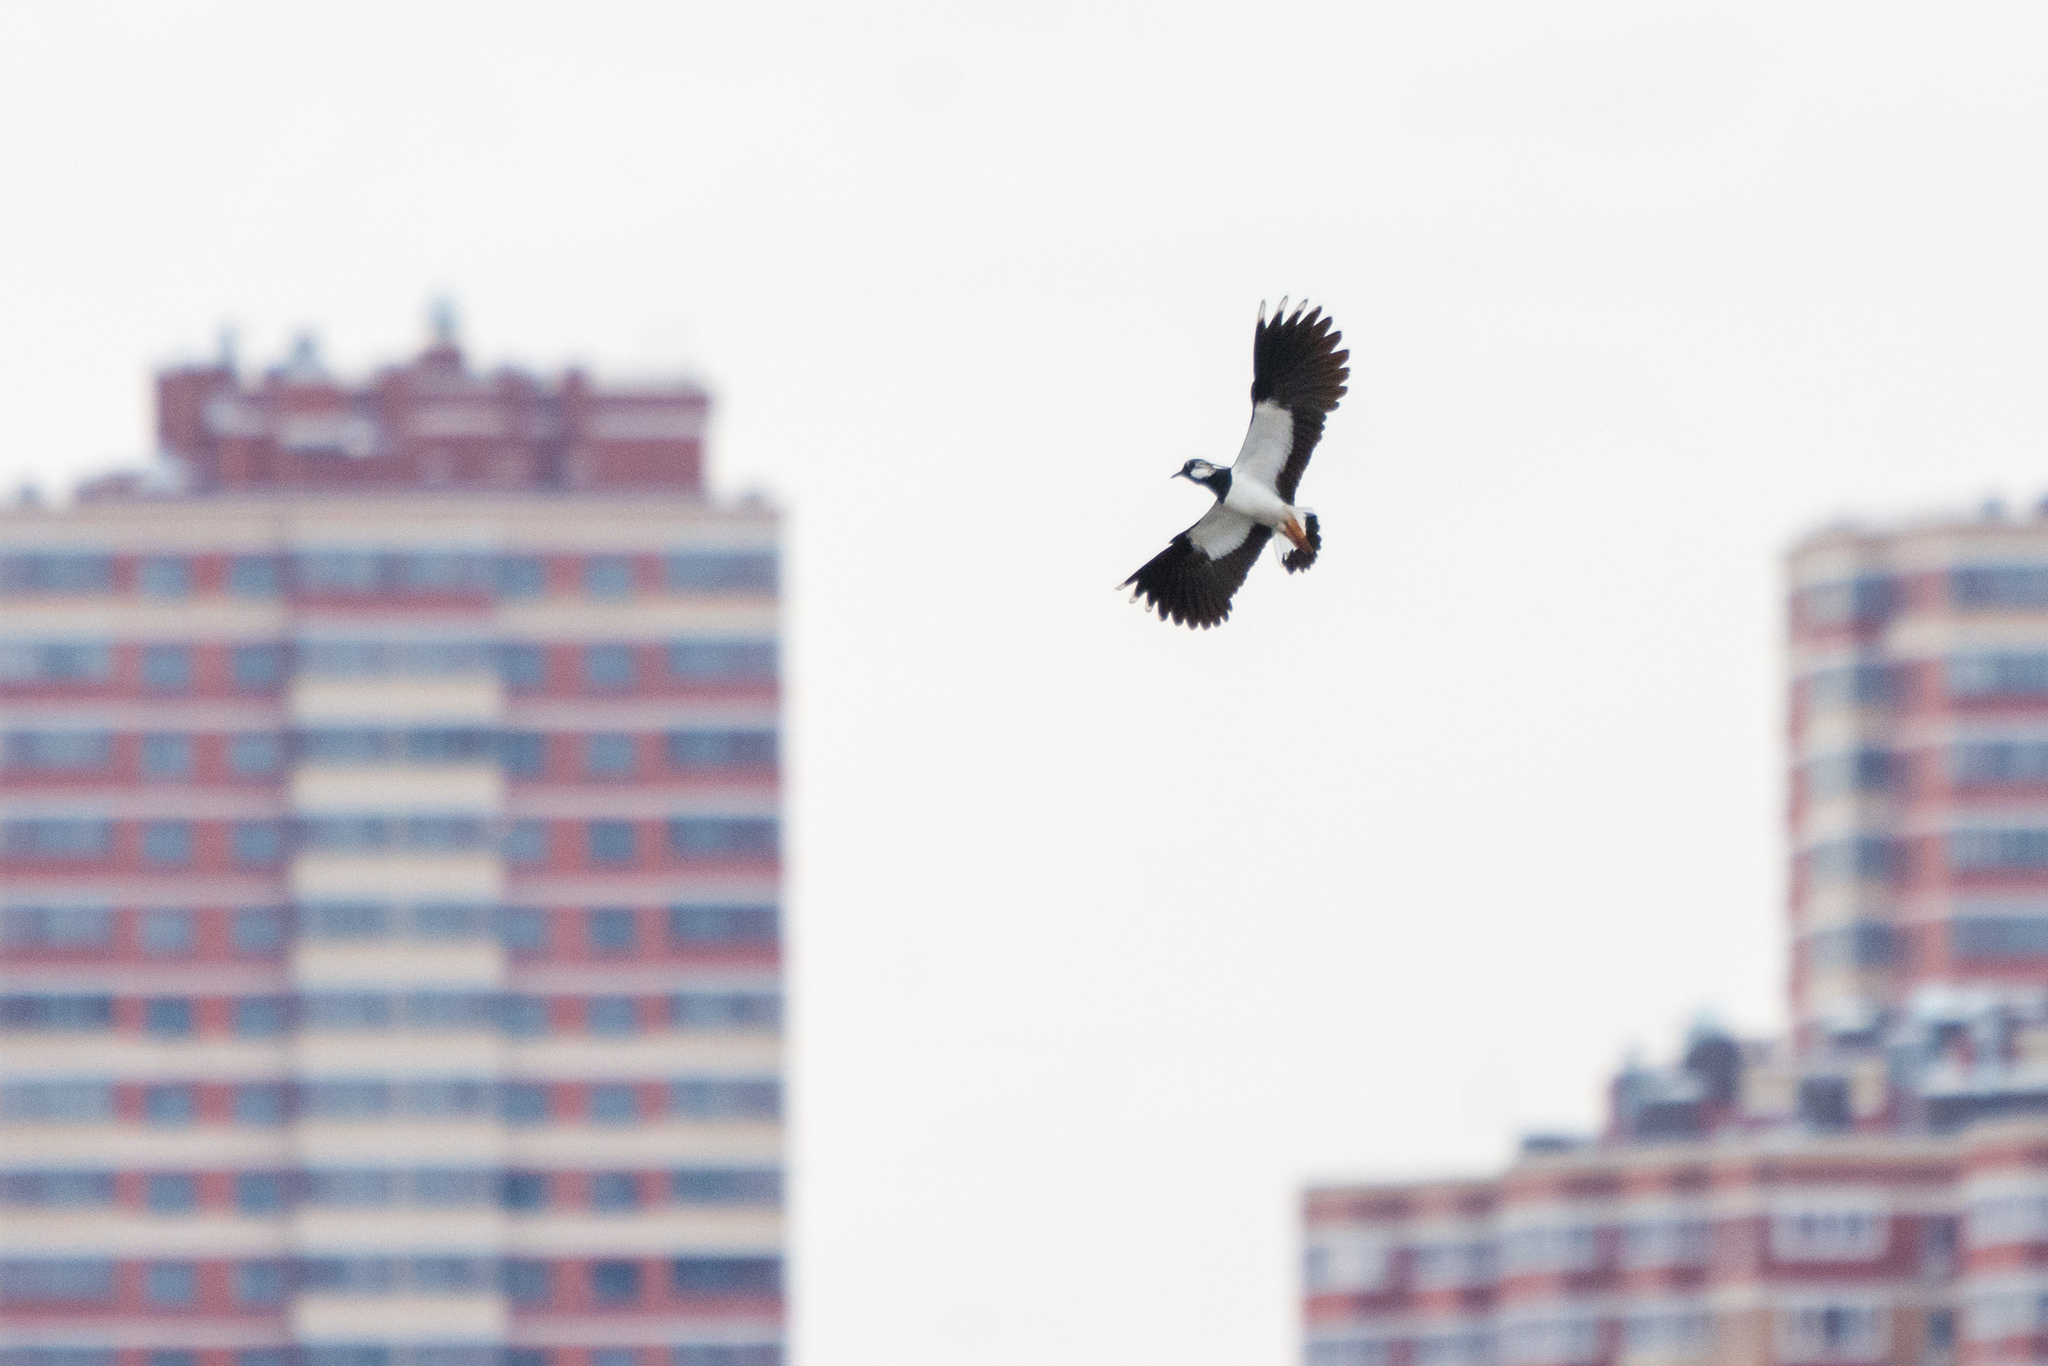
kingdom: Animalia
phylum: Chordata
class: Aves
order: Charadriiformes
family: Charadriidae
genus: Vanellus
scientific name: Vanellus vanellus
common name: Northern lapwing
